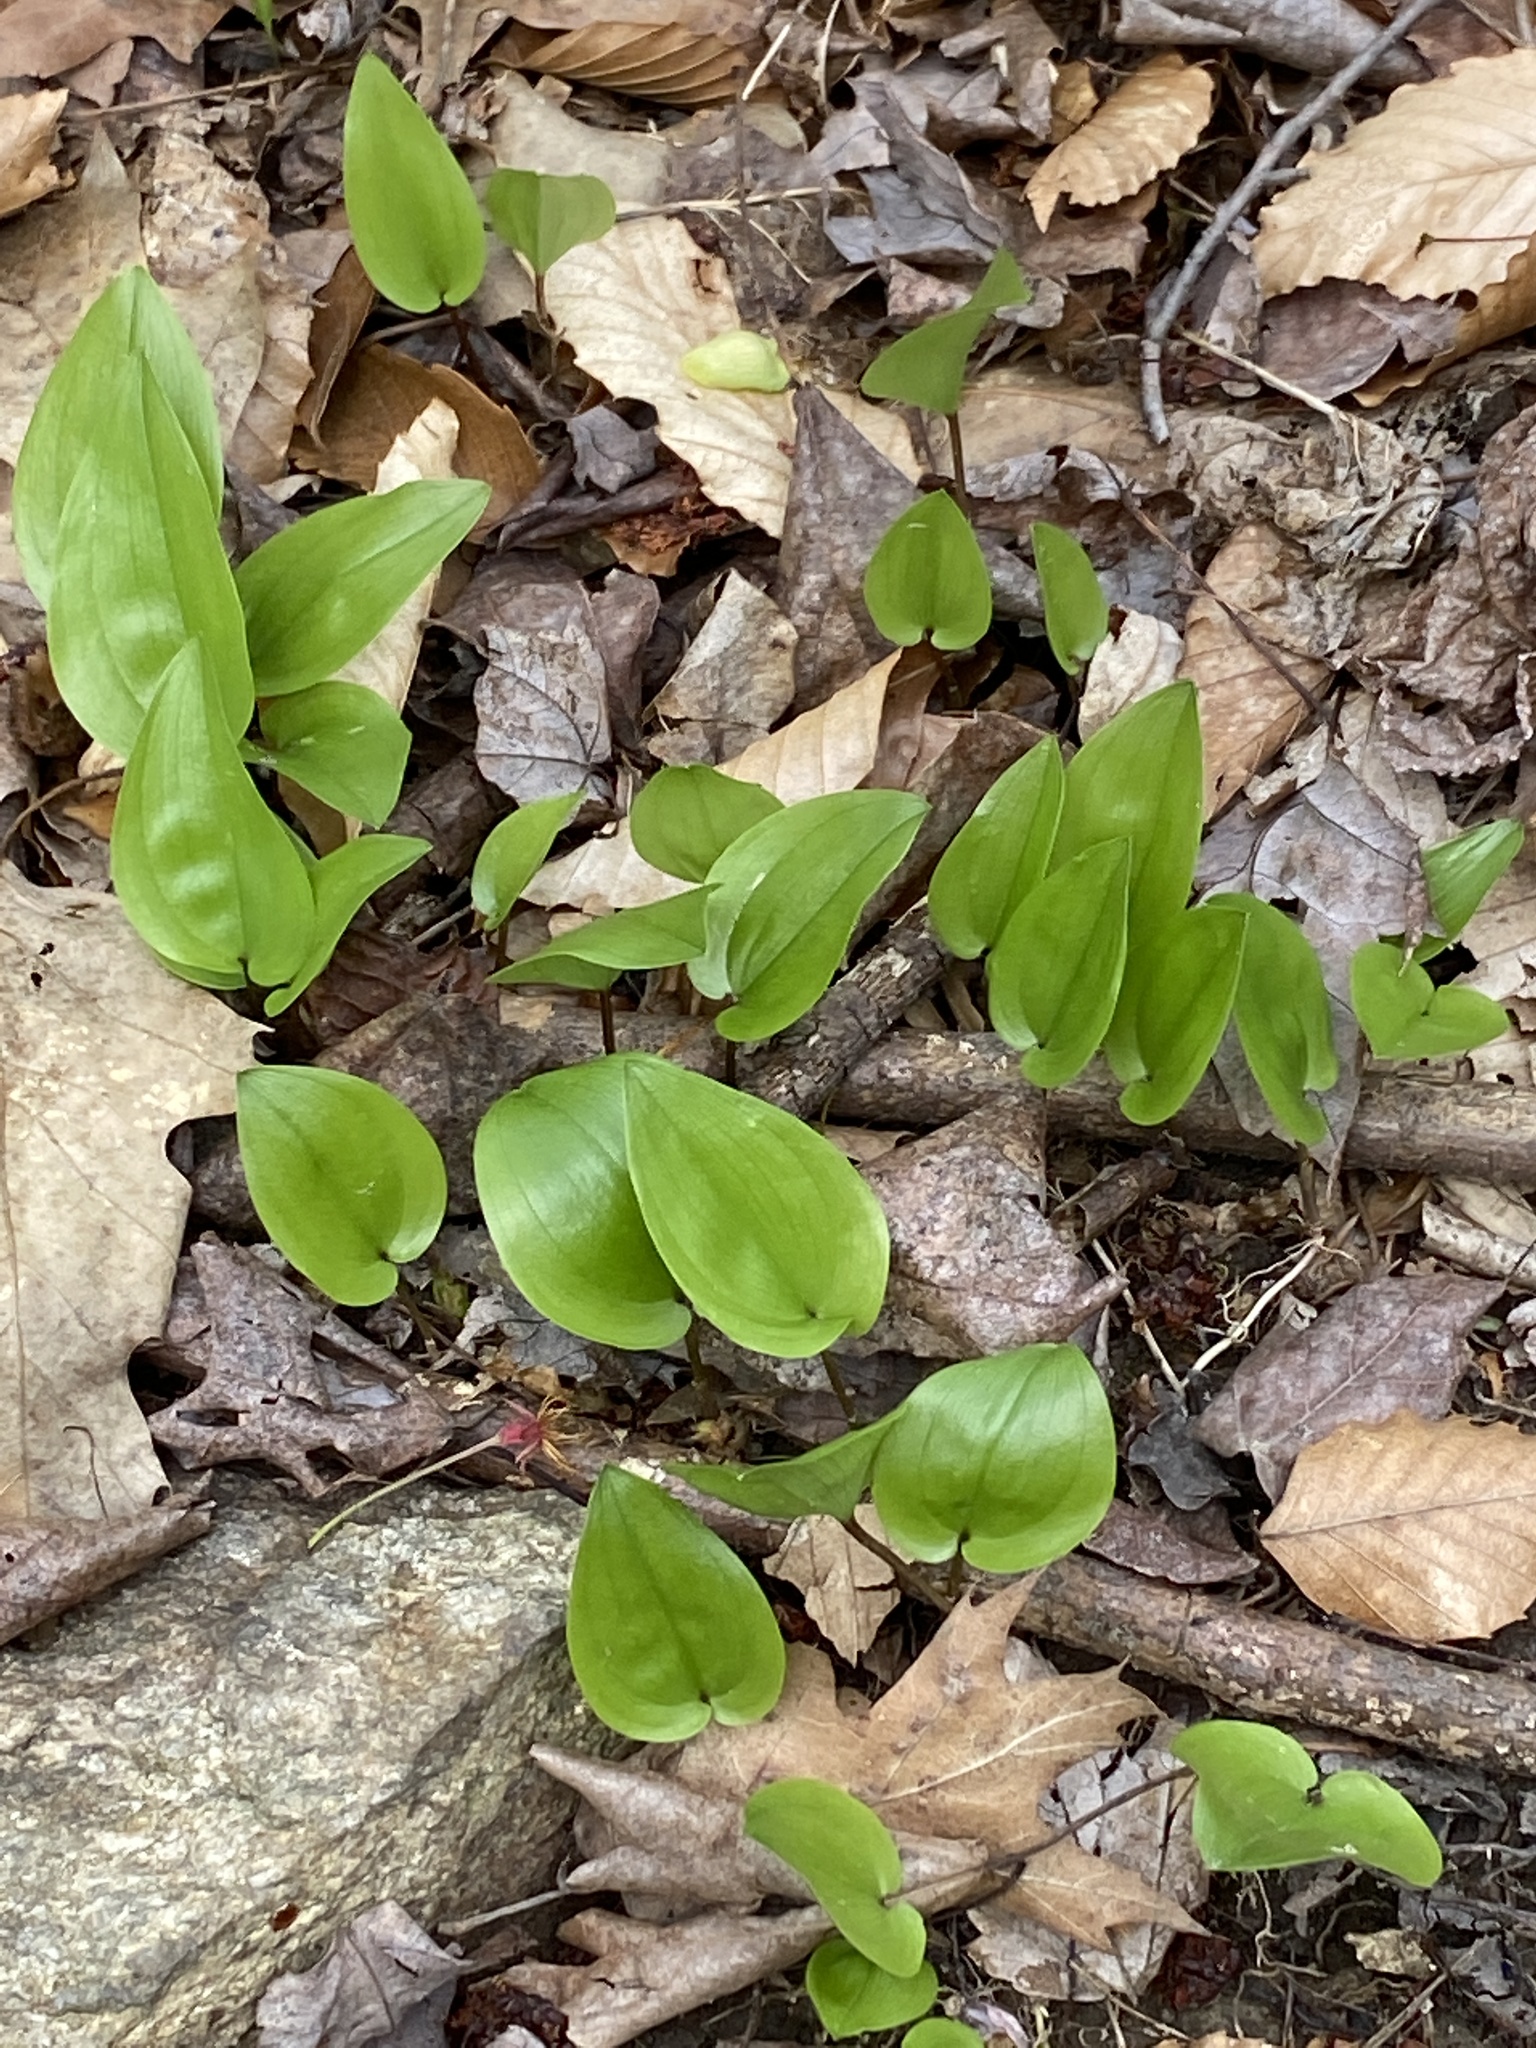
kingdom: Plantae
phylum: Tracheophyta
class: Liliopsida
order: Asparagales
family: Asparagaceae
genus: Maianthemum
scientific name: Maianthemum canadense
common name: False lily-of-the-valley
